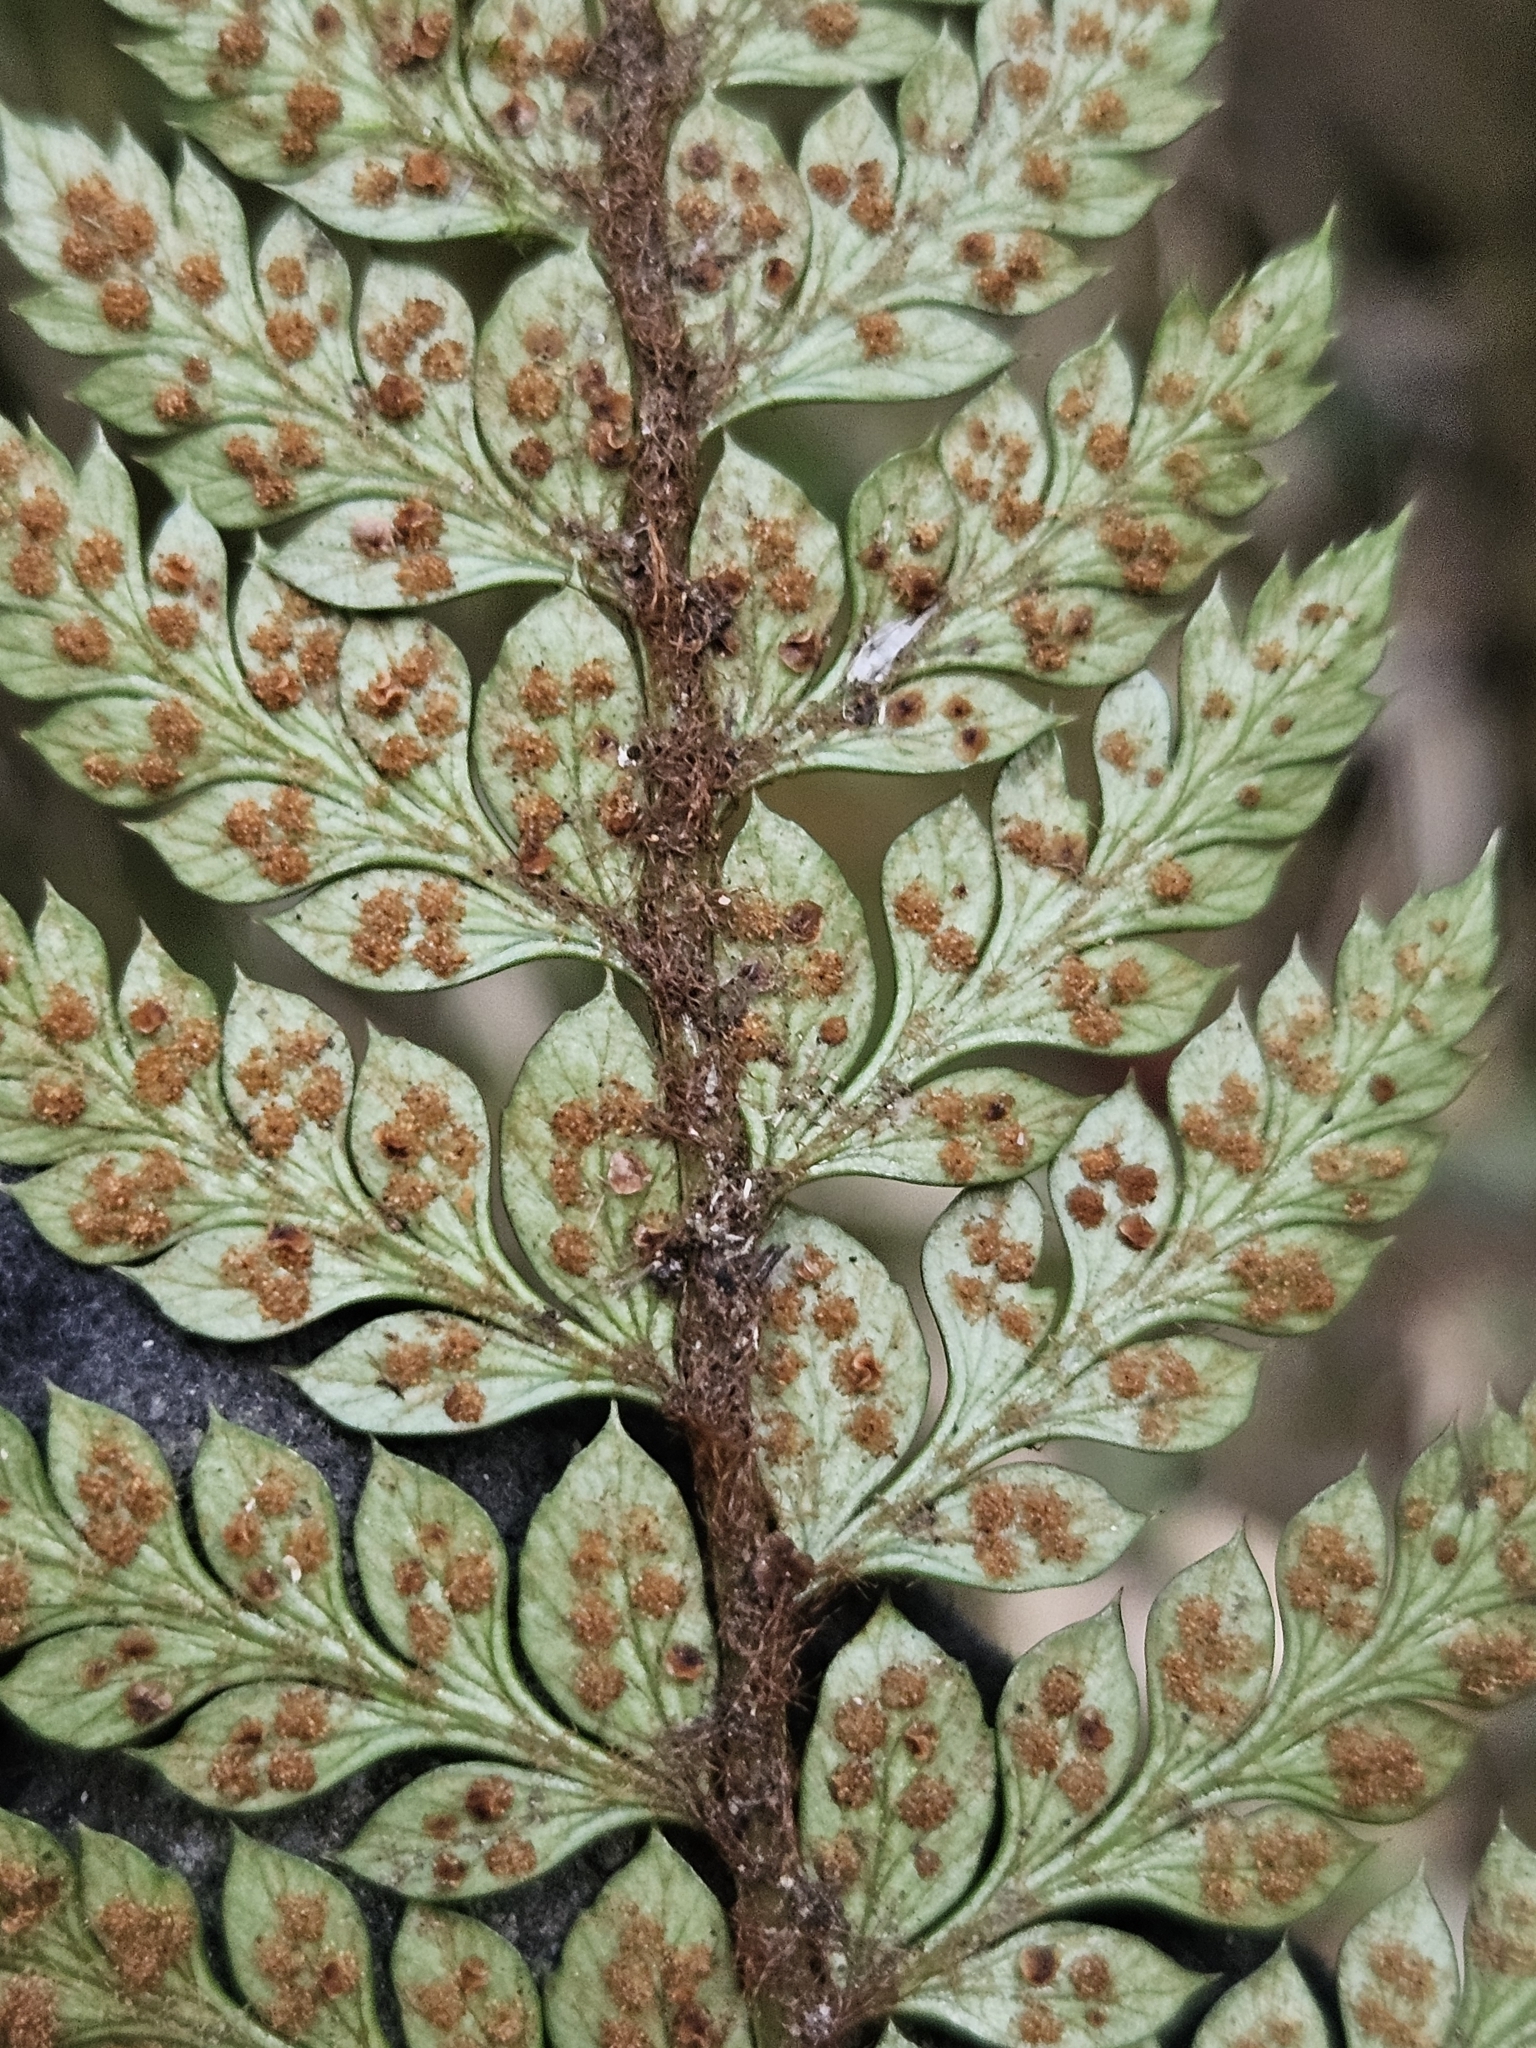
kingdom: Plantae
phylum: Tracheophyta
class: Polypodiopsida
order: Polypodiales
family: Dryopteridaceae
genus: Polystichum
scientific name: Polystichum neolobatum
